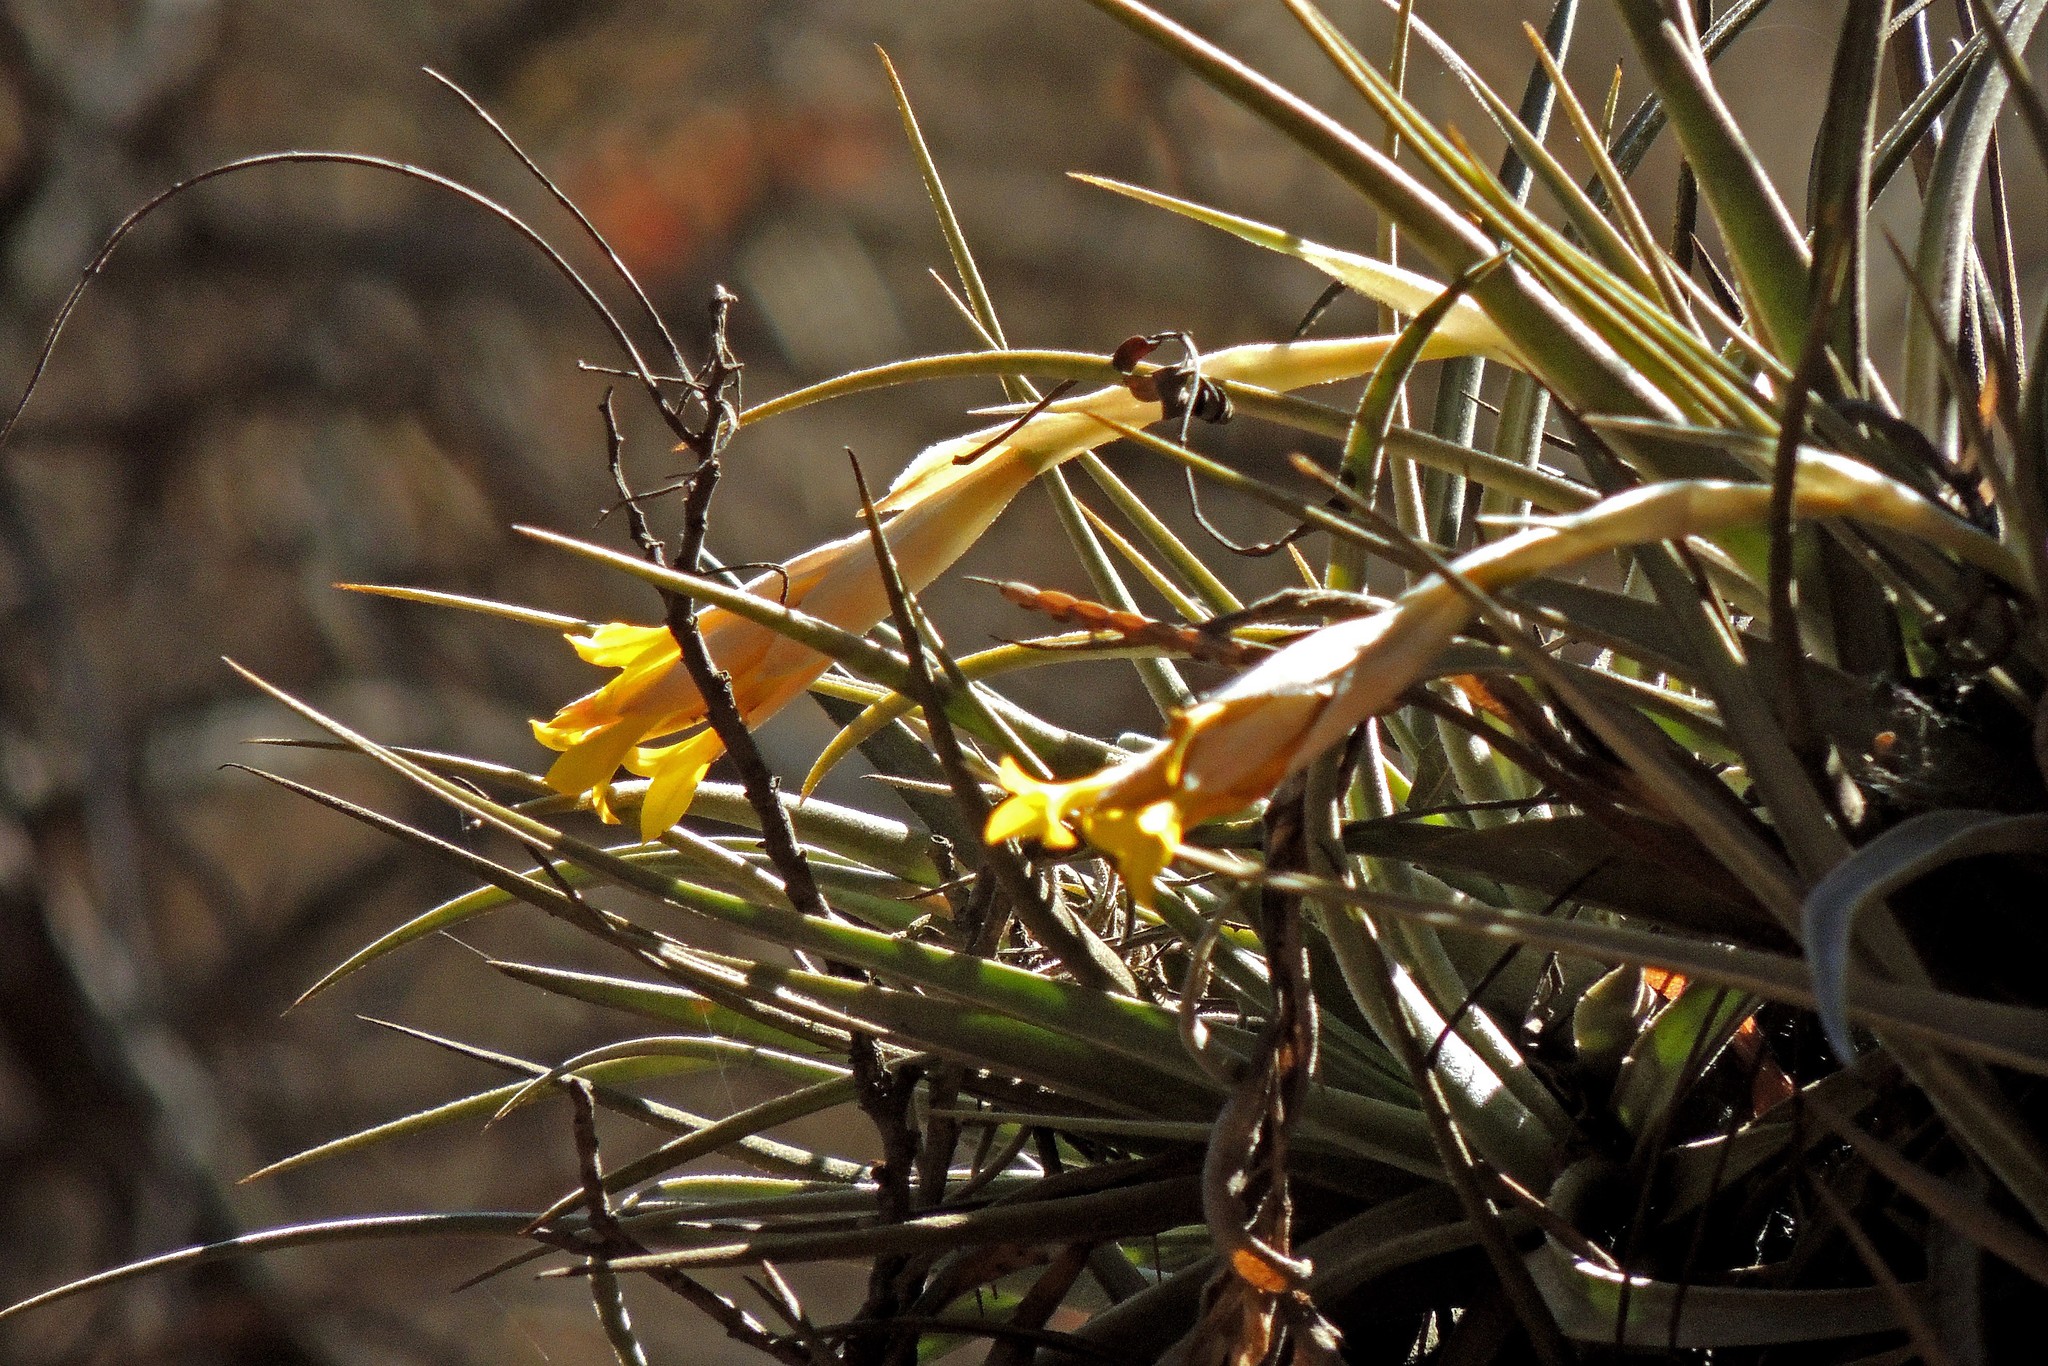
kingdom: Plantae
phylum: Tracheophyta
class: Liliopsida
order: Poales
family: Bromeliaceae
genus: Tillandsia
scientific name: Tillandsia ixioides
